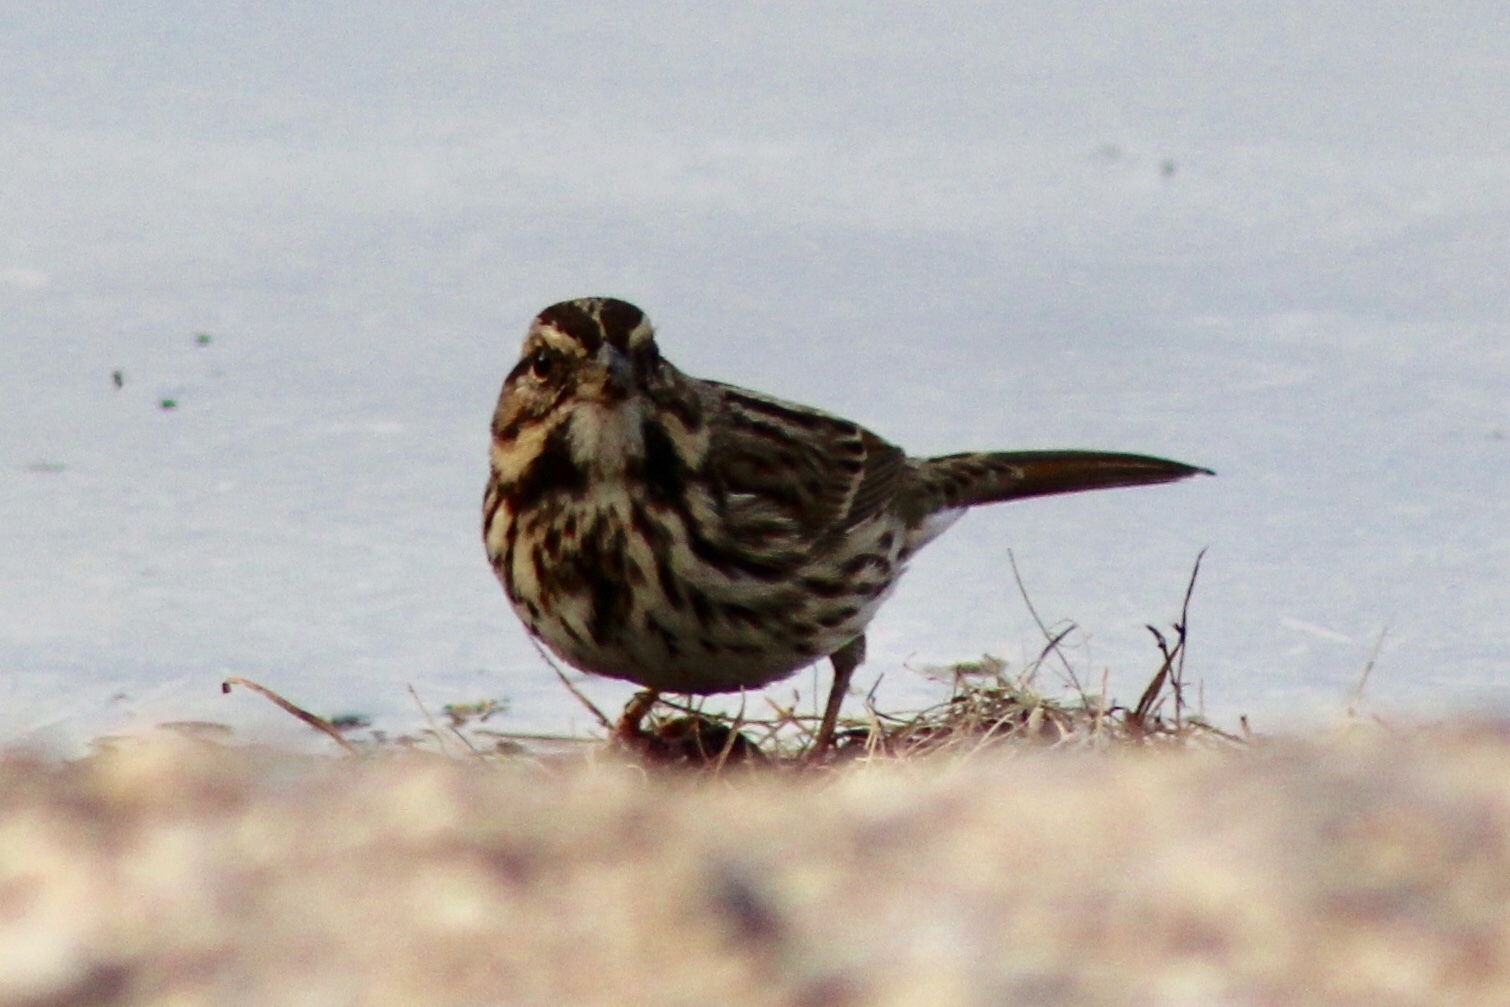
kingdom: Animalia
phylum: Chordata
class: Aves
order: Passeriformes
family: Passerellidae
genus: Melospiza
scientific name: Melospiza melodia
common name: Song sparrow
